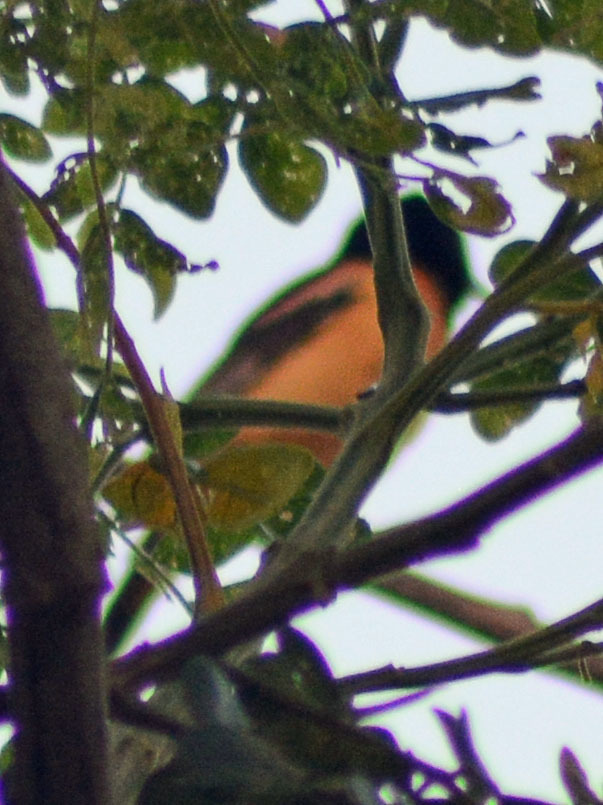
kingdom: Animalia
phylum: Chordata
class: Aves
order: Passeriformes
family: Icteridae
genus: Icterus
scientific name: Icterus spurius
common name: Orchard oriole
